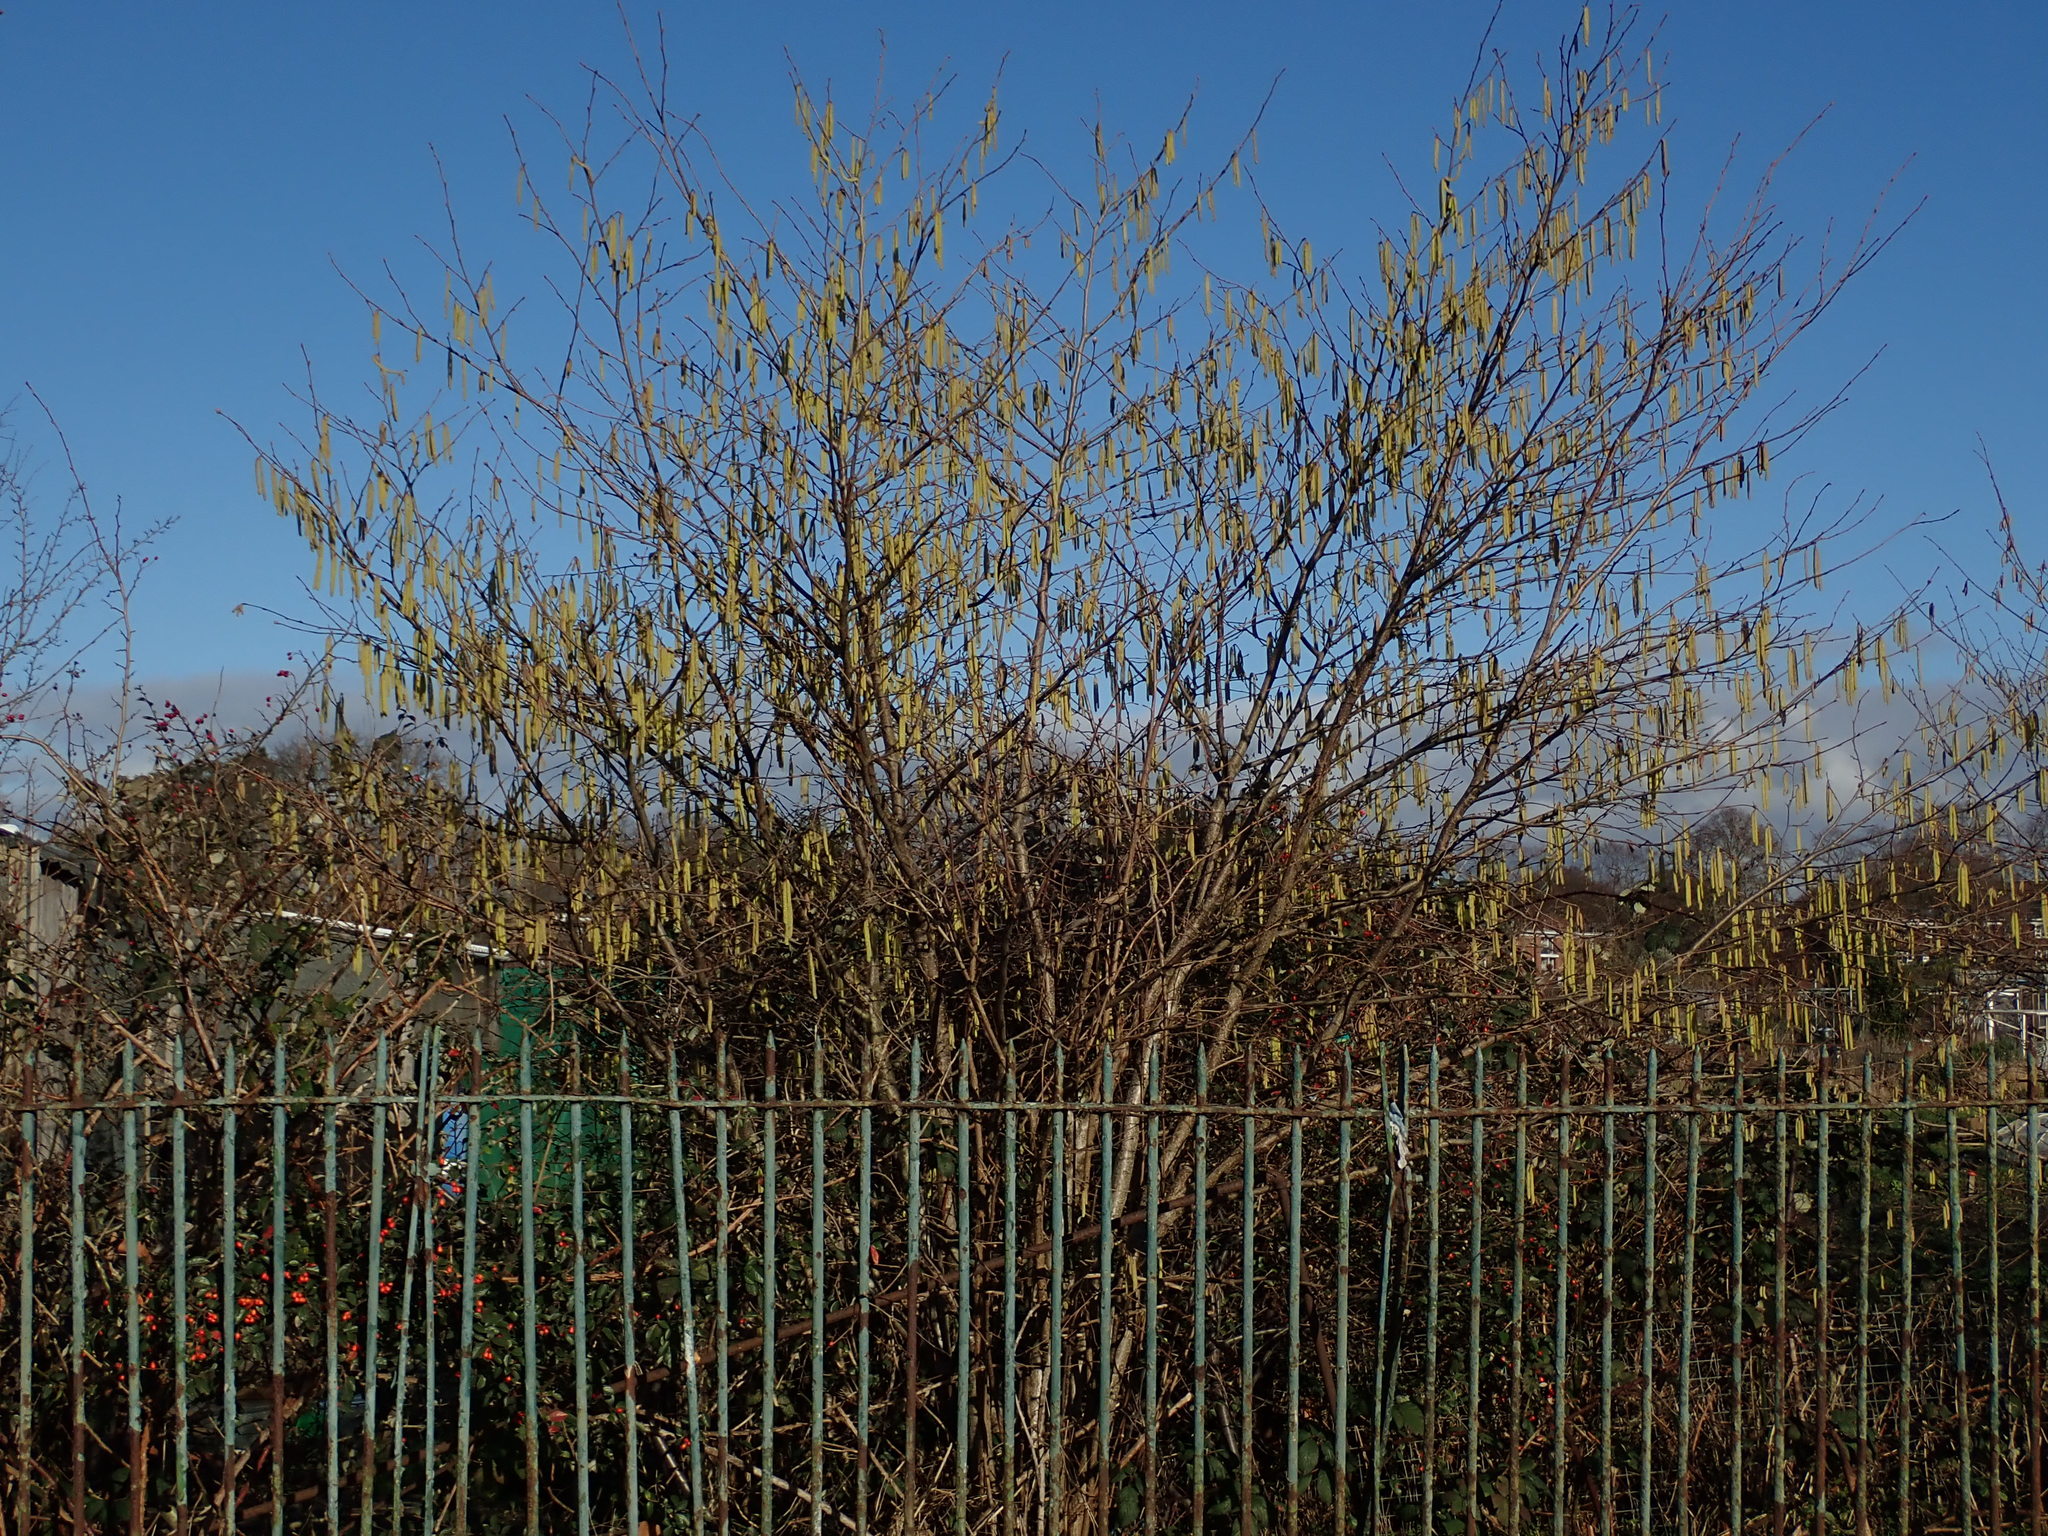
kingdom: Plantae
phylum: Tracheophyta
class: Magnoliopsida
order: Fagales
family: Betulaceae
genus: Corylus
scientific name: Corylus avellana
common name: European hazel
